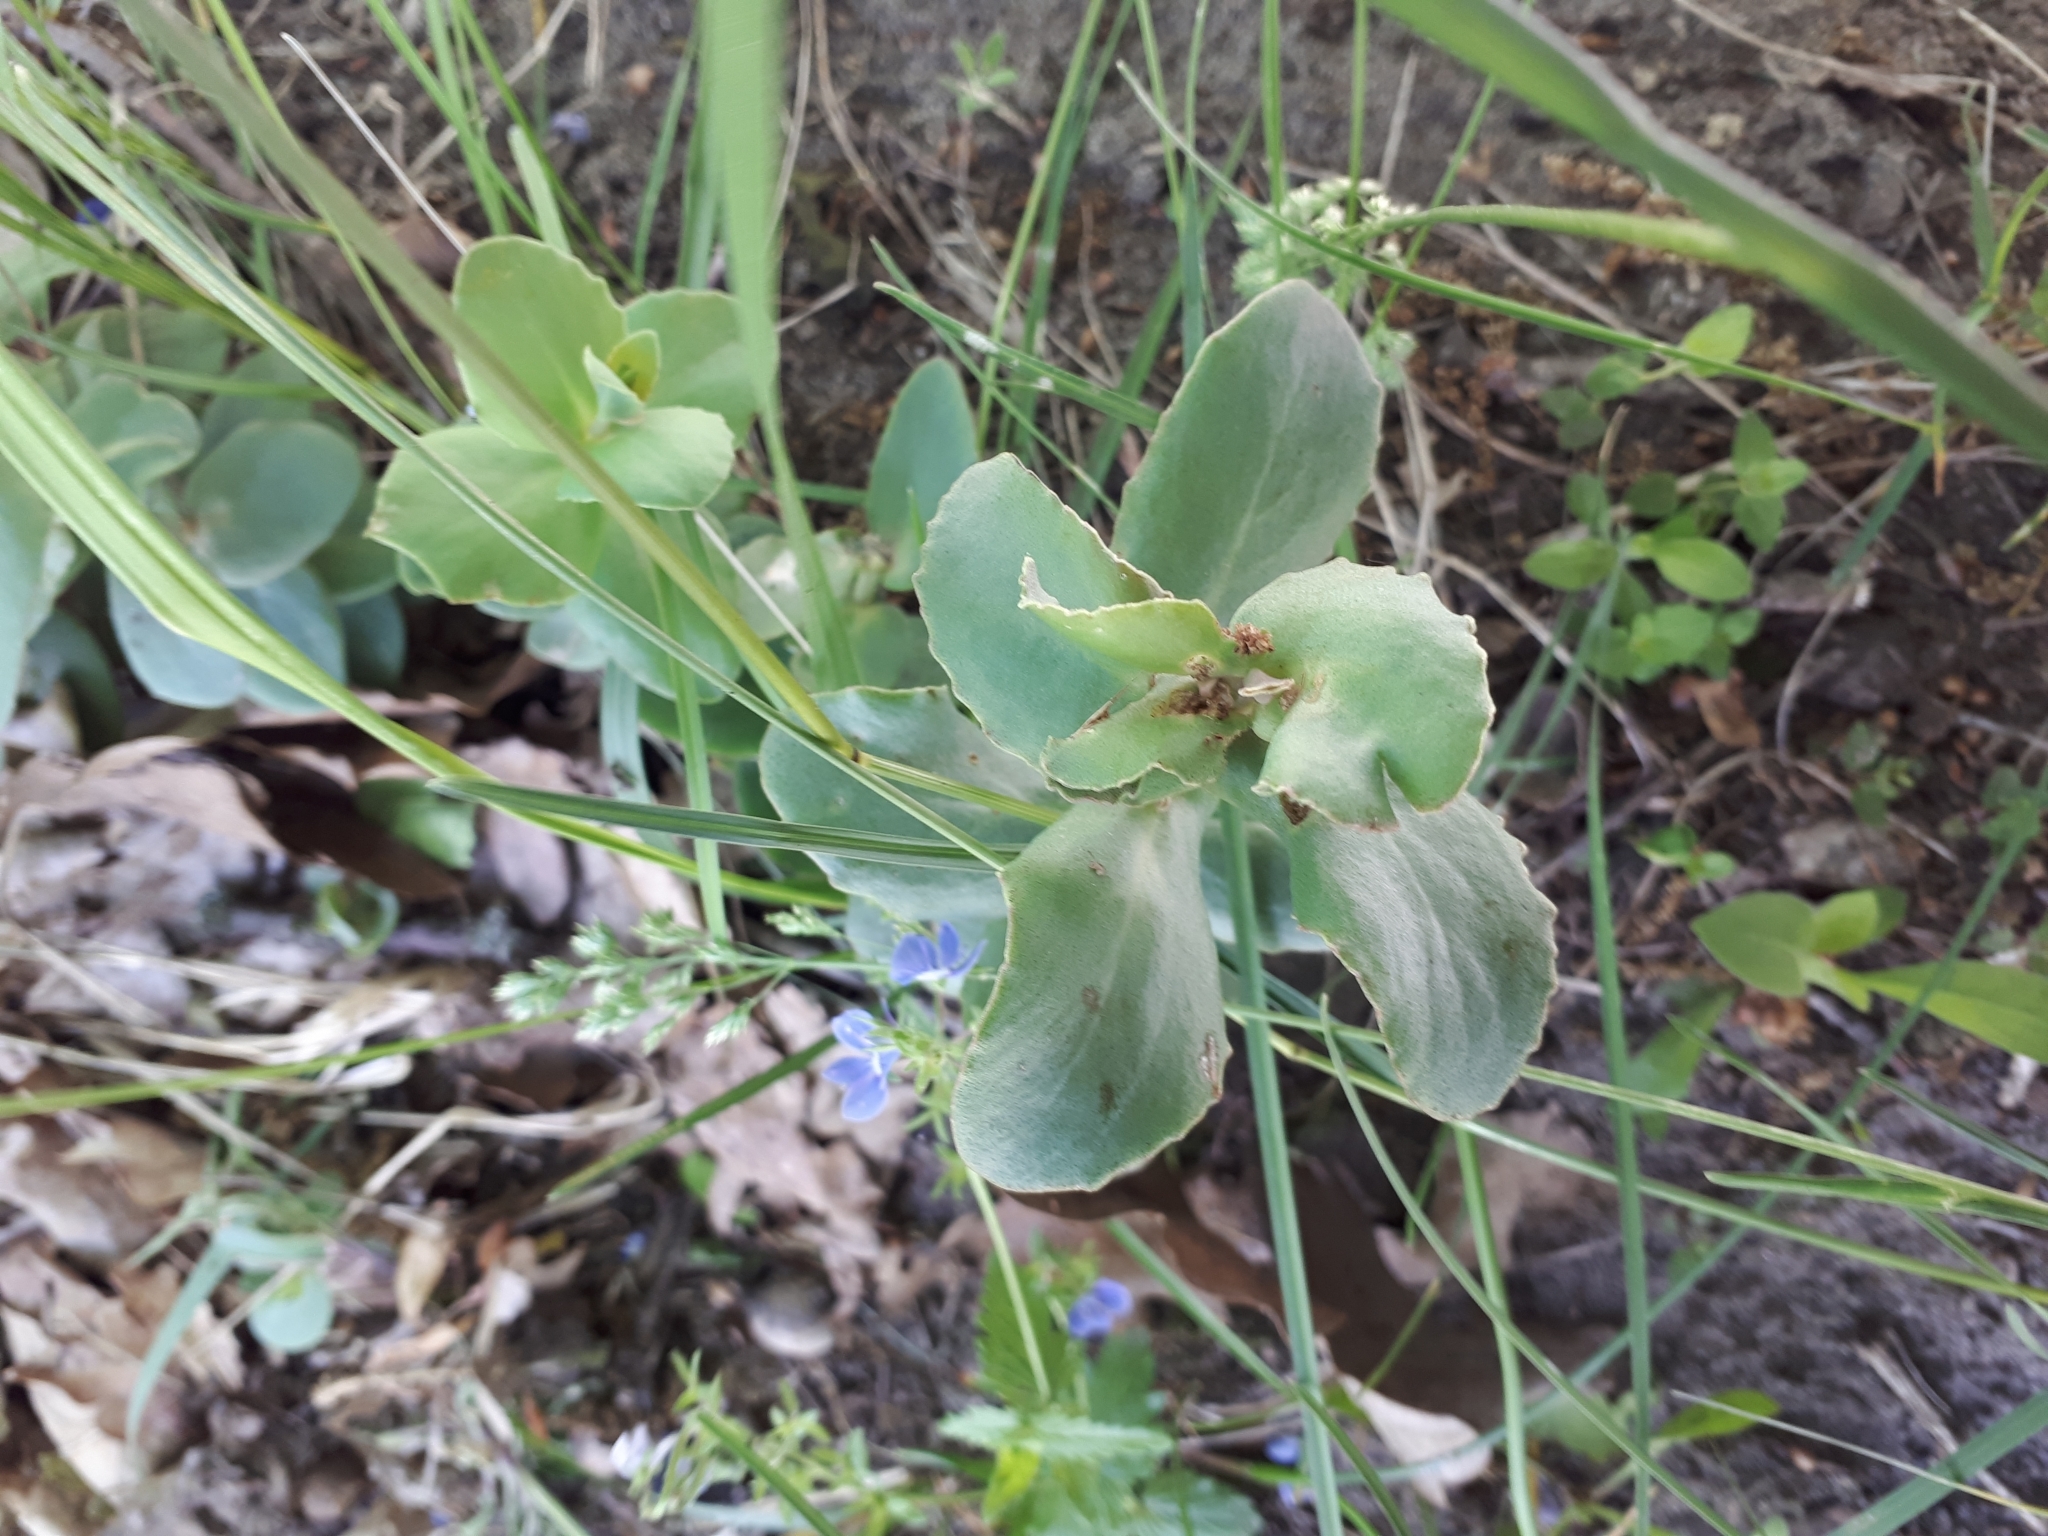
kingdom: Plantae
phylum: Tracheophyta
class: Magnoliopsida
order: Saxifragales
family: Crassulaceae
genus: Hylotelephium
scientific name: Hylotelephium maximum
